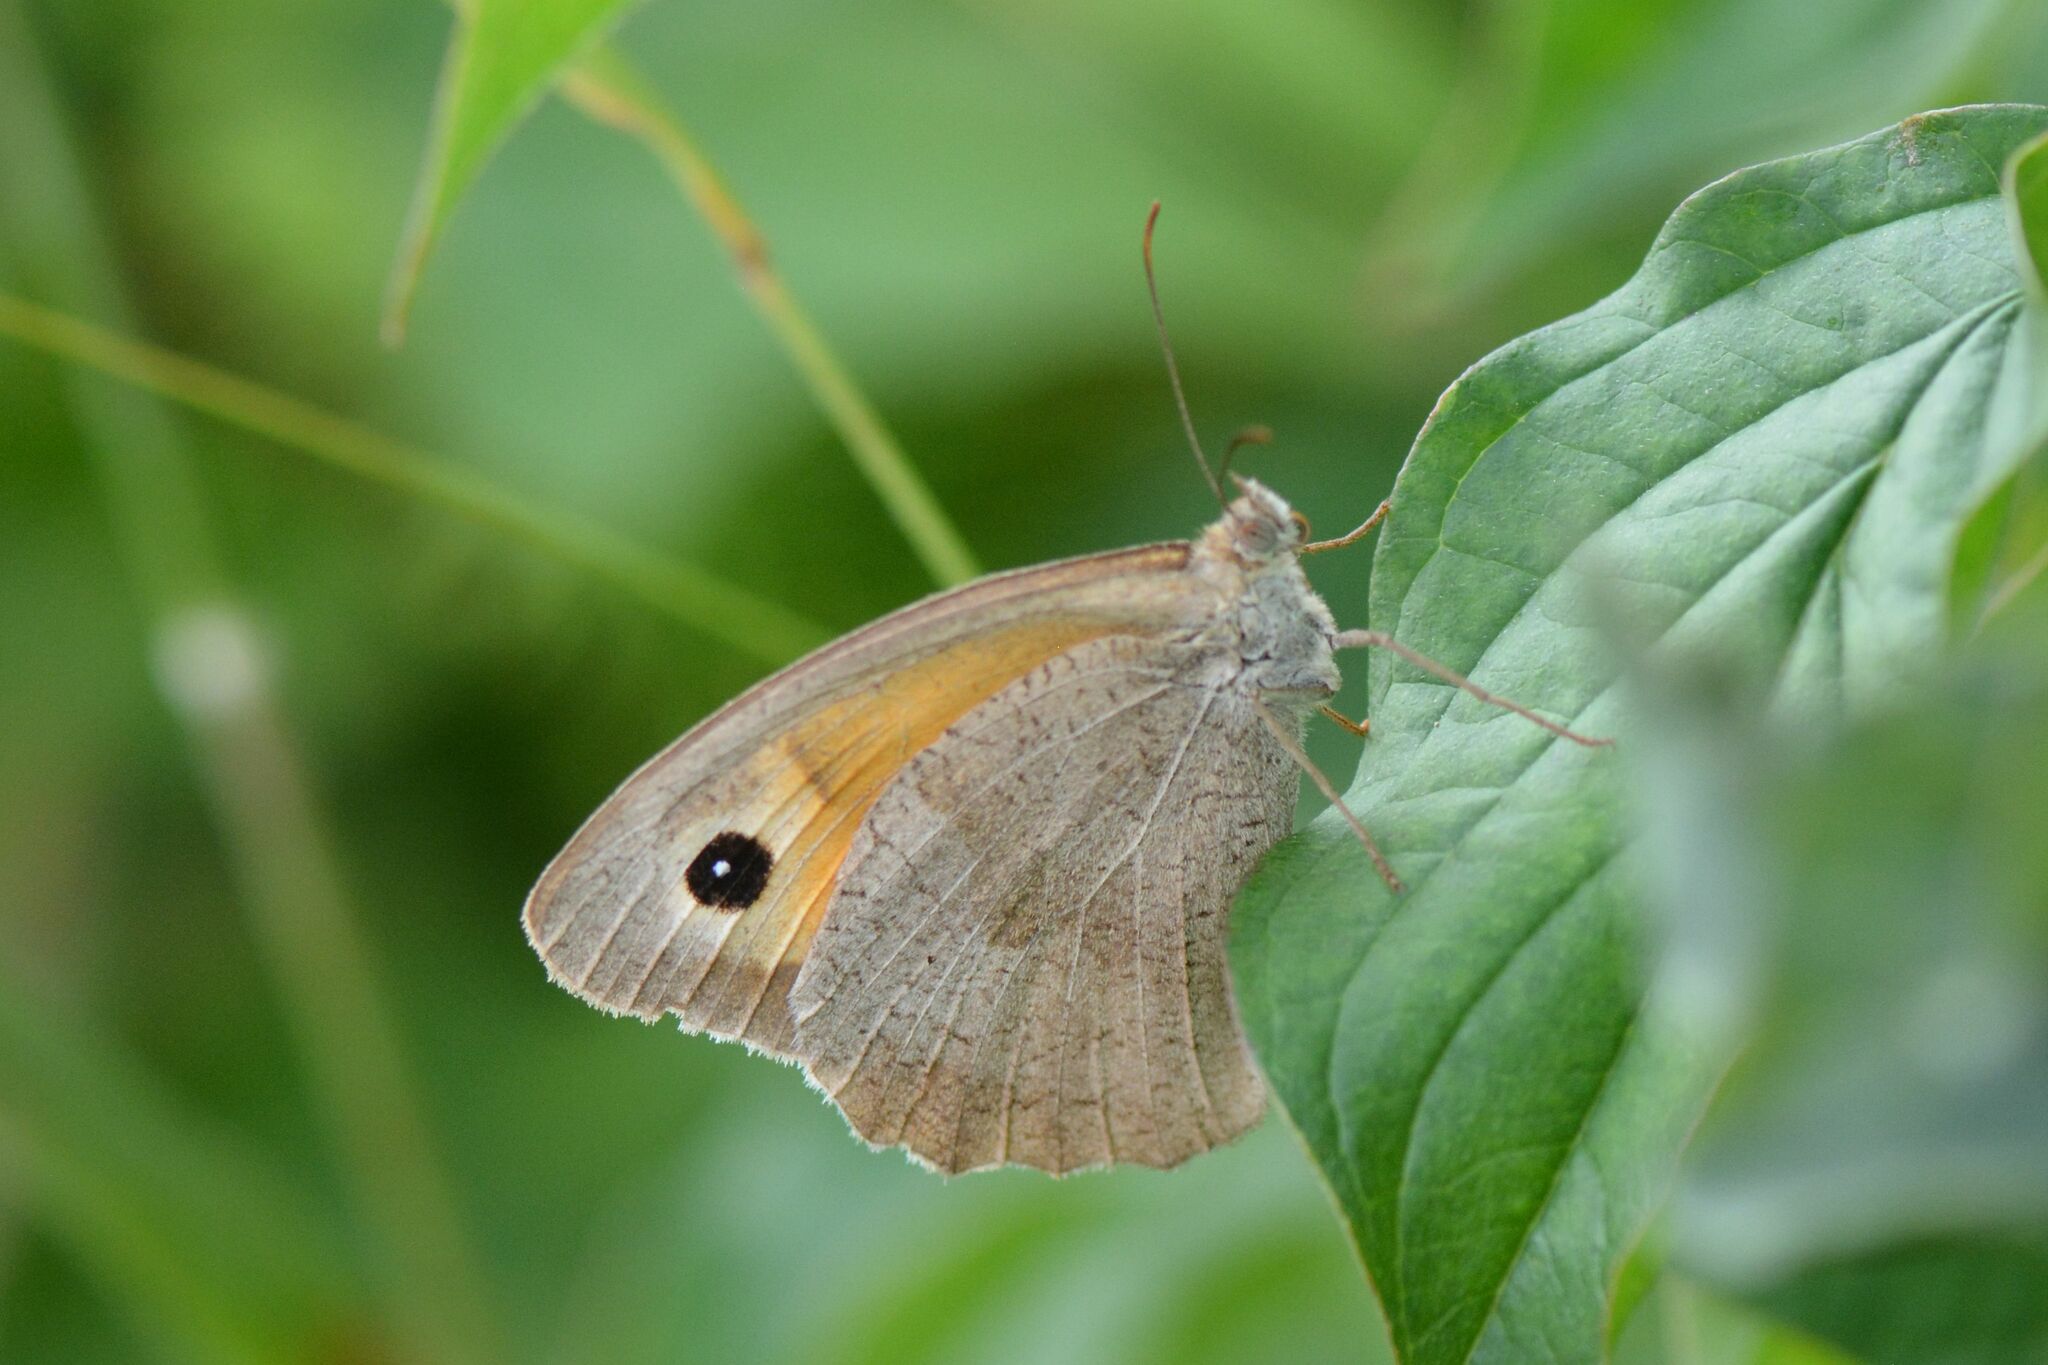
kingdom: Animalia
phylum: Arthropoda
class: Insecta
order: Lepidoptera
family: Nymphalidae
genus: Maniola
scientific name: Maniola jurtina
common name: Meadow brown
